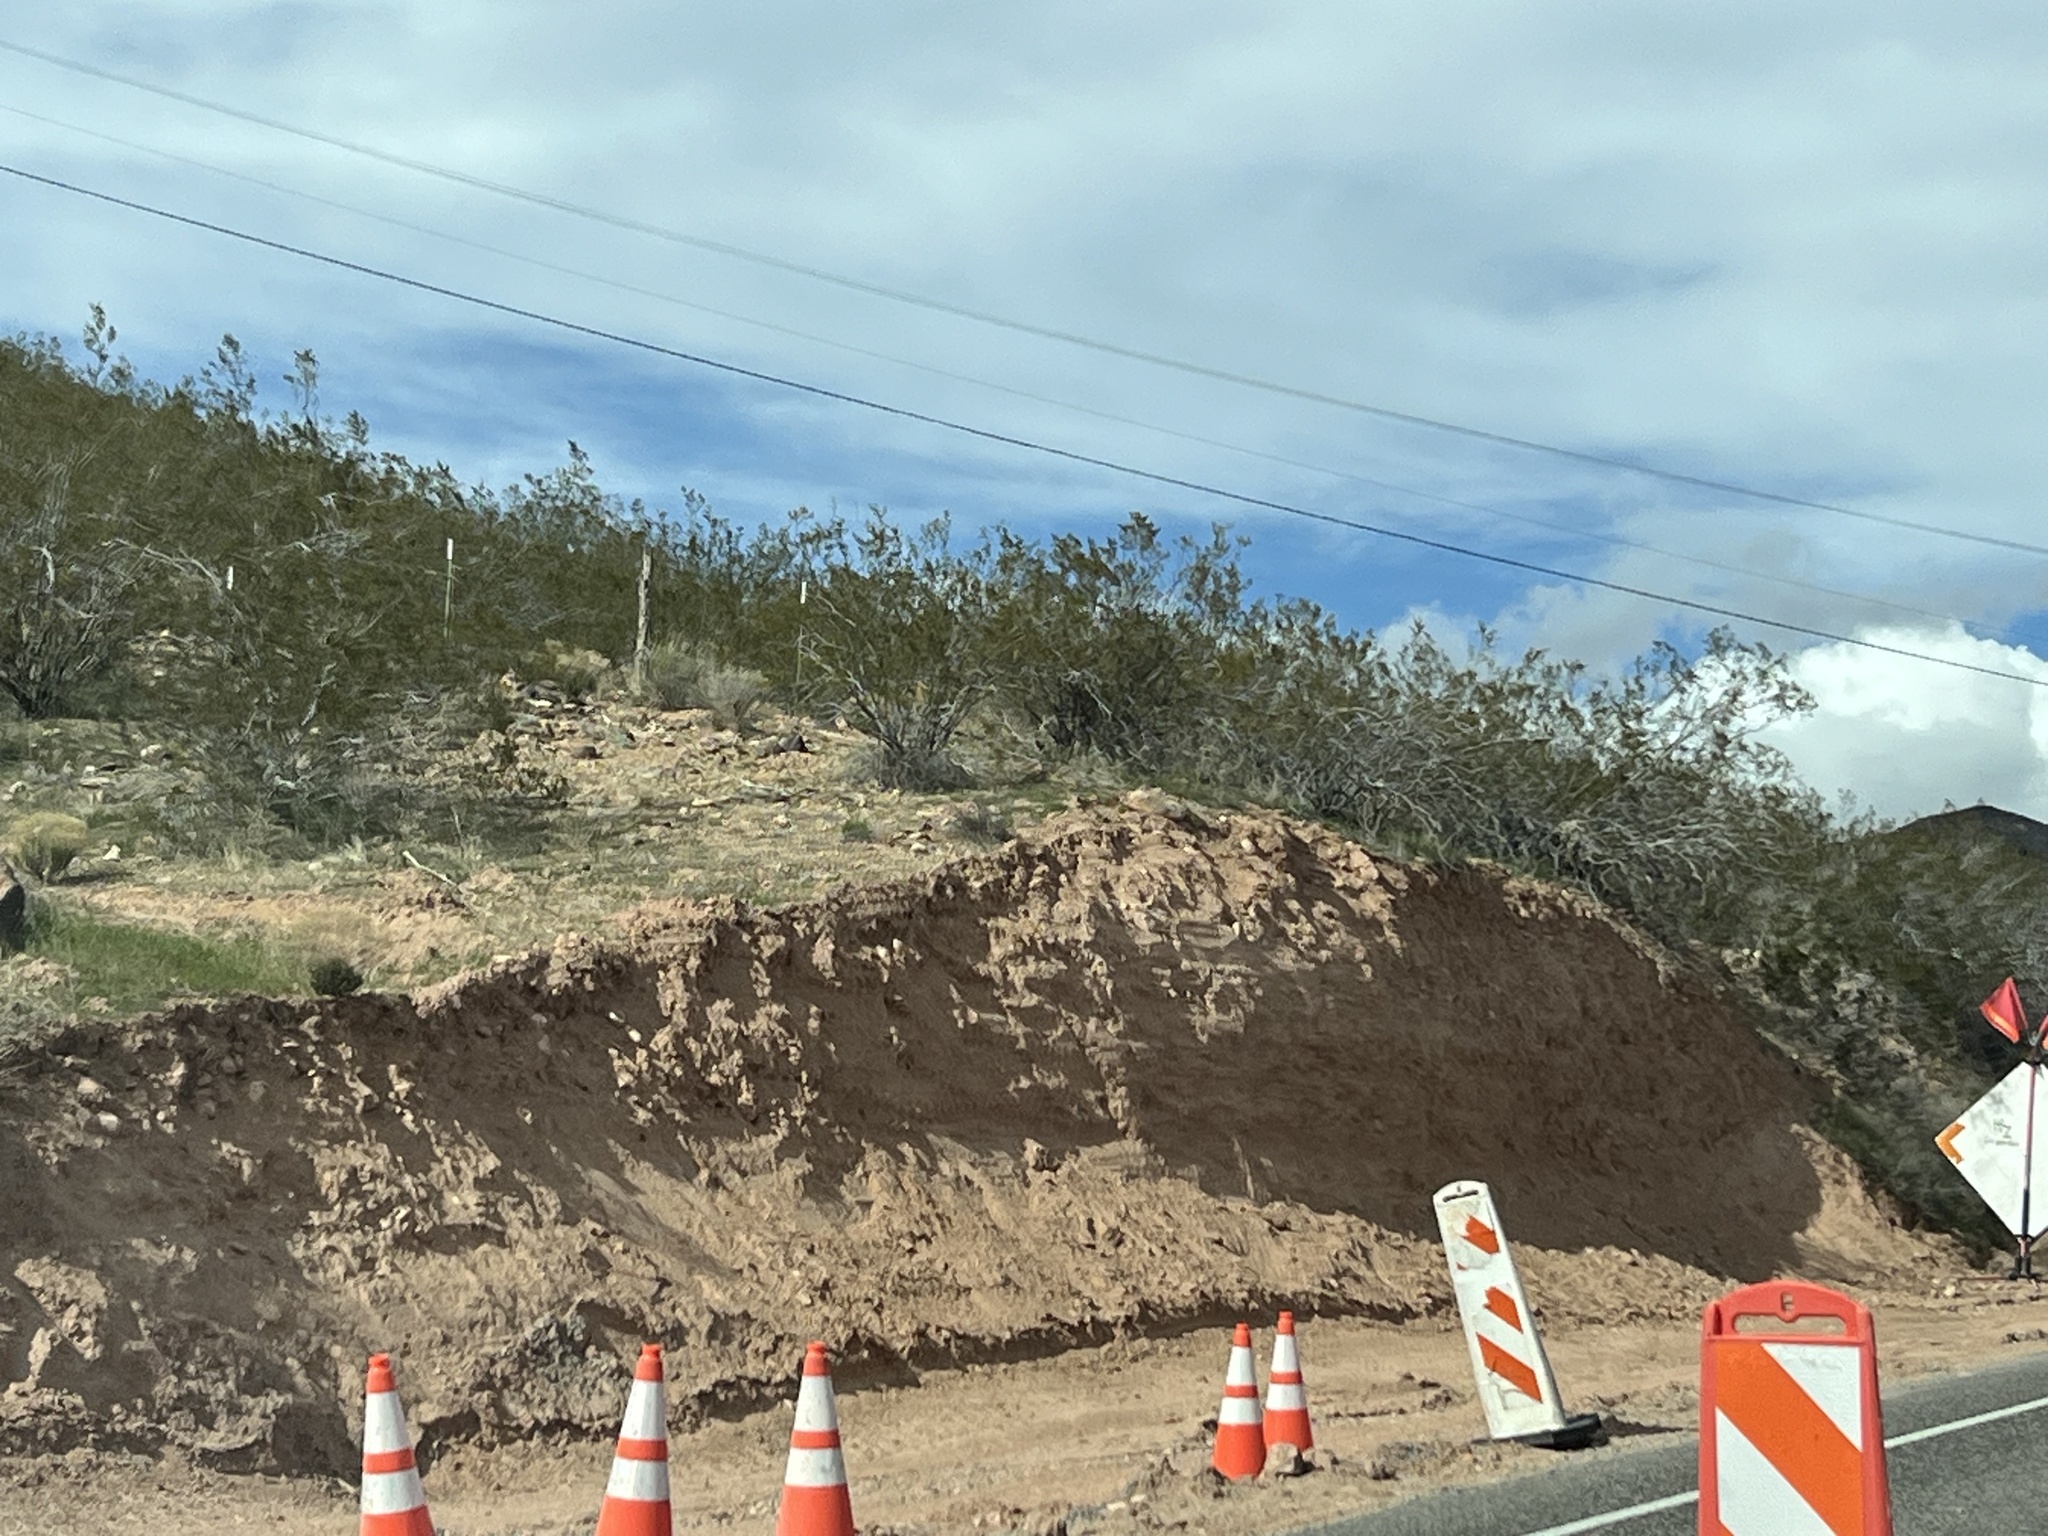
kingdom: Plantae
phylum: Tracheophyta
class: Magnoliopsida
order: Zygophyllales
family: Zygophyllaceae
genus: Larrea
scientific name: Larrea tridentata
